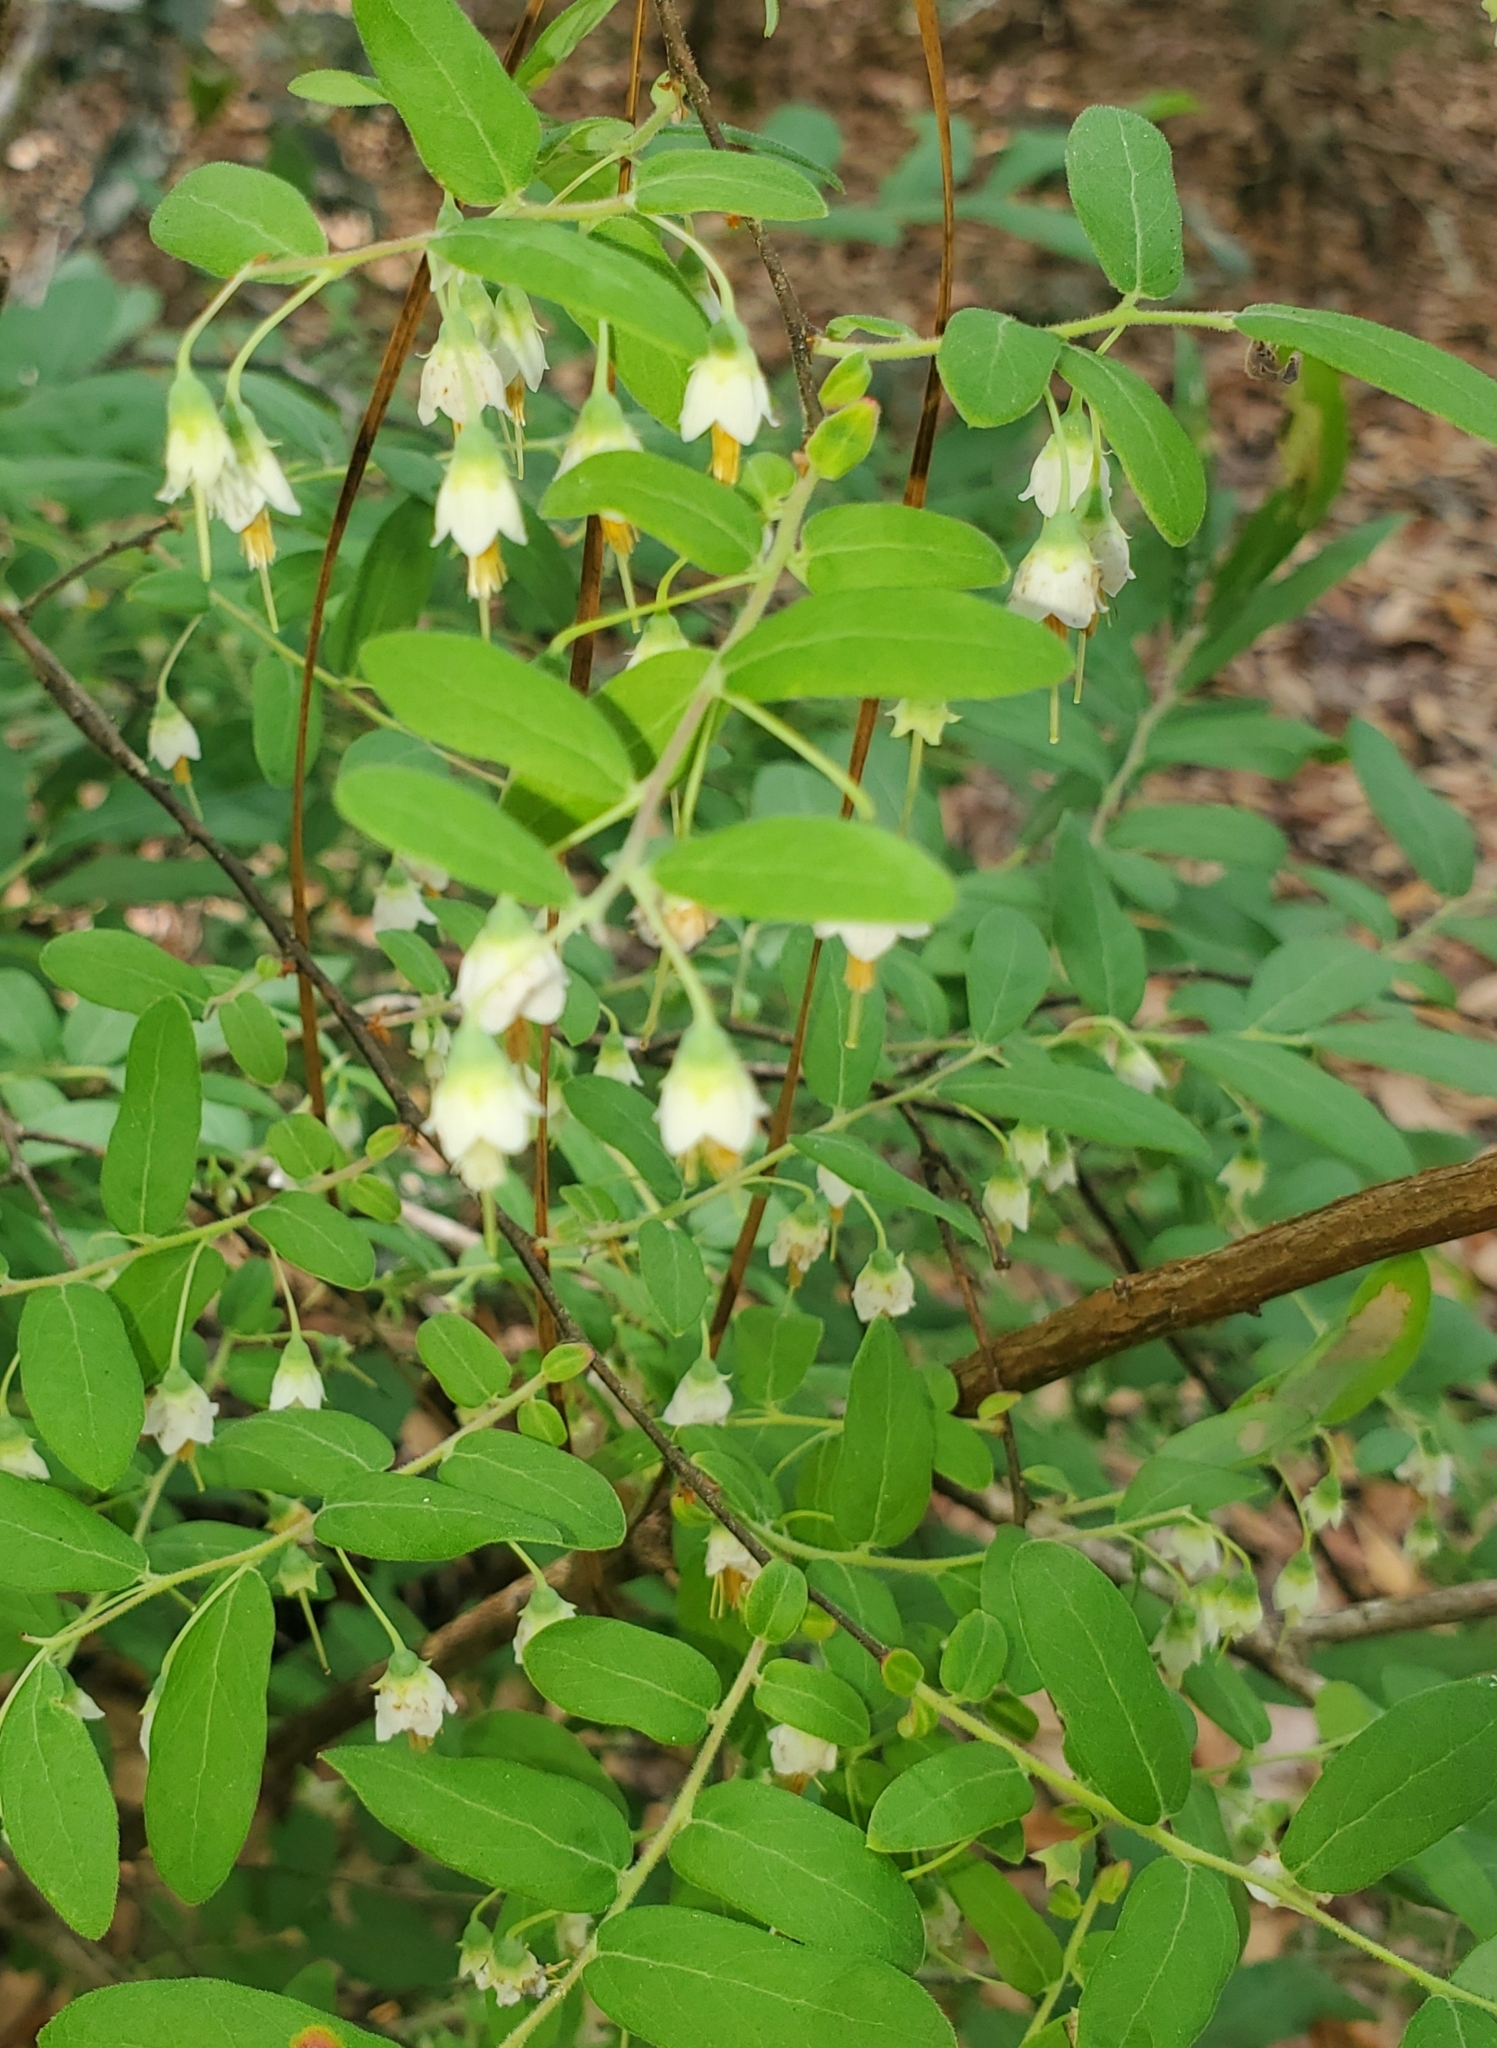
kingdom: Plantae
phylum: Tracheophyta
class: Magnoliopsida
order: Ericales
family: Ericaceae
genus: Vaccinium
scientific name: Vaccinium stamineum
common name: Deerberry
